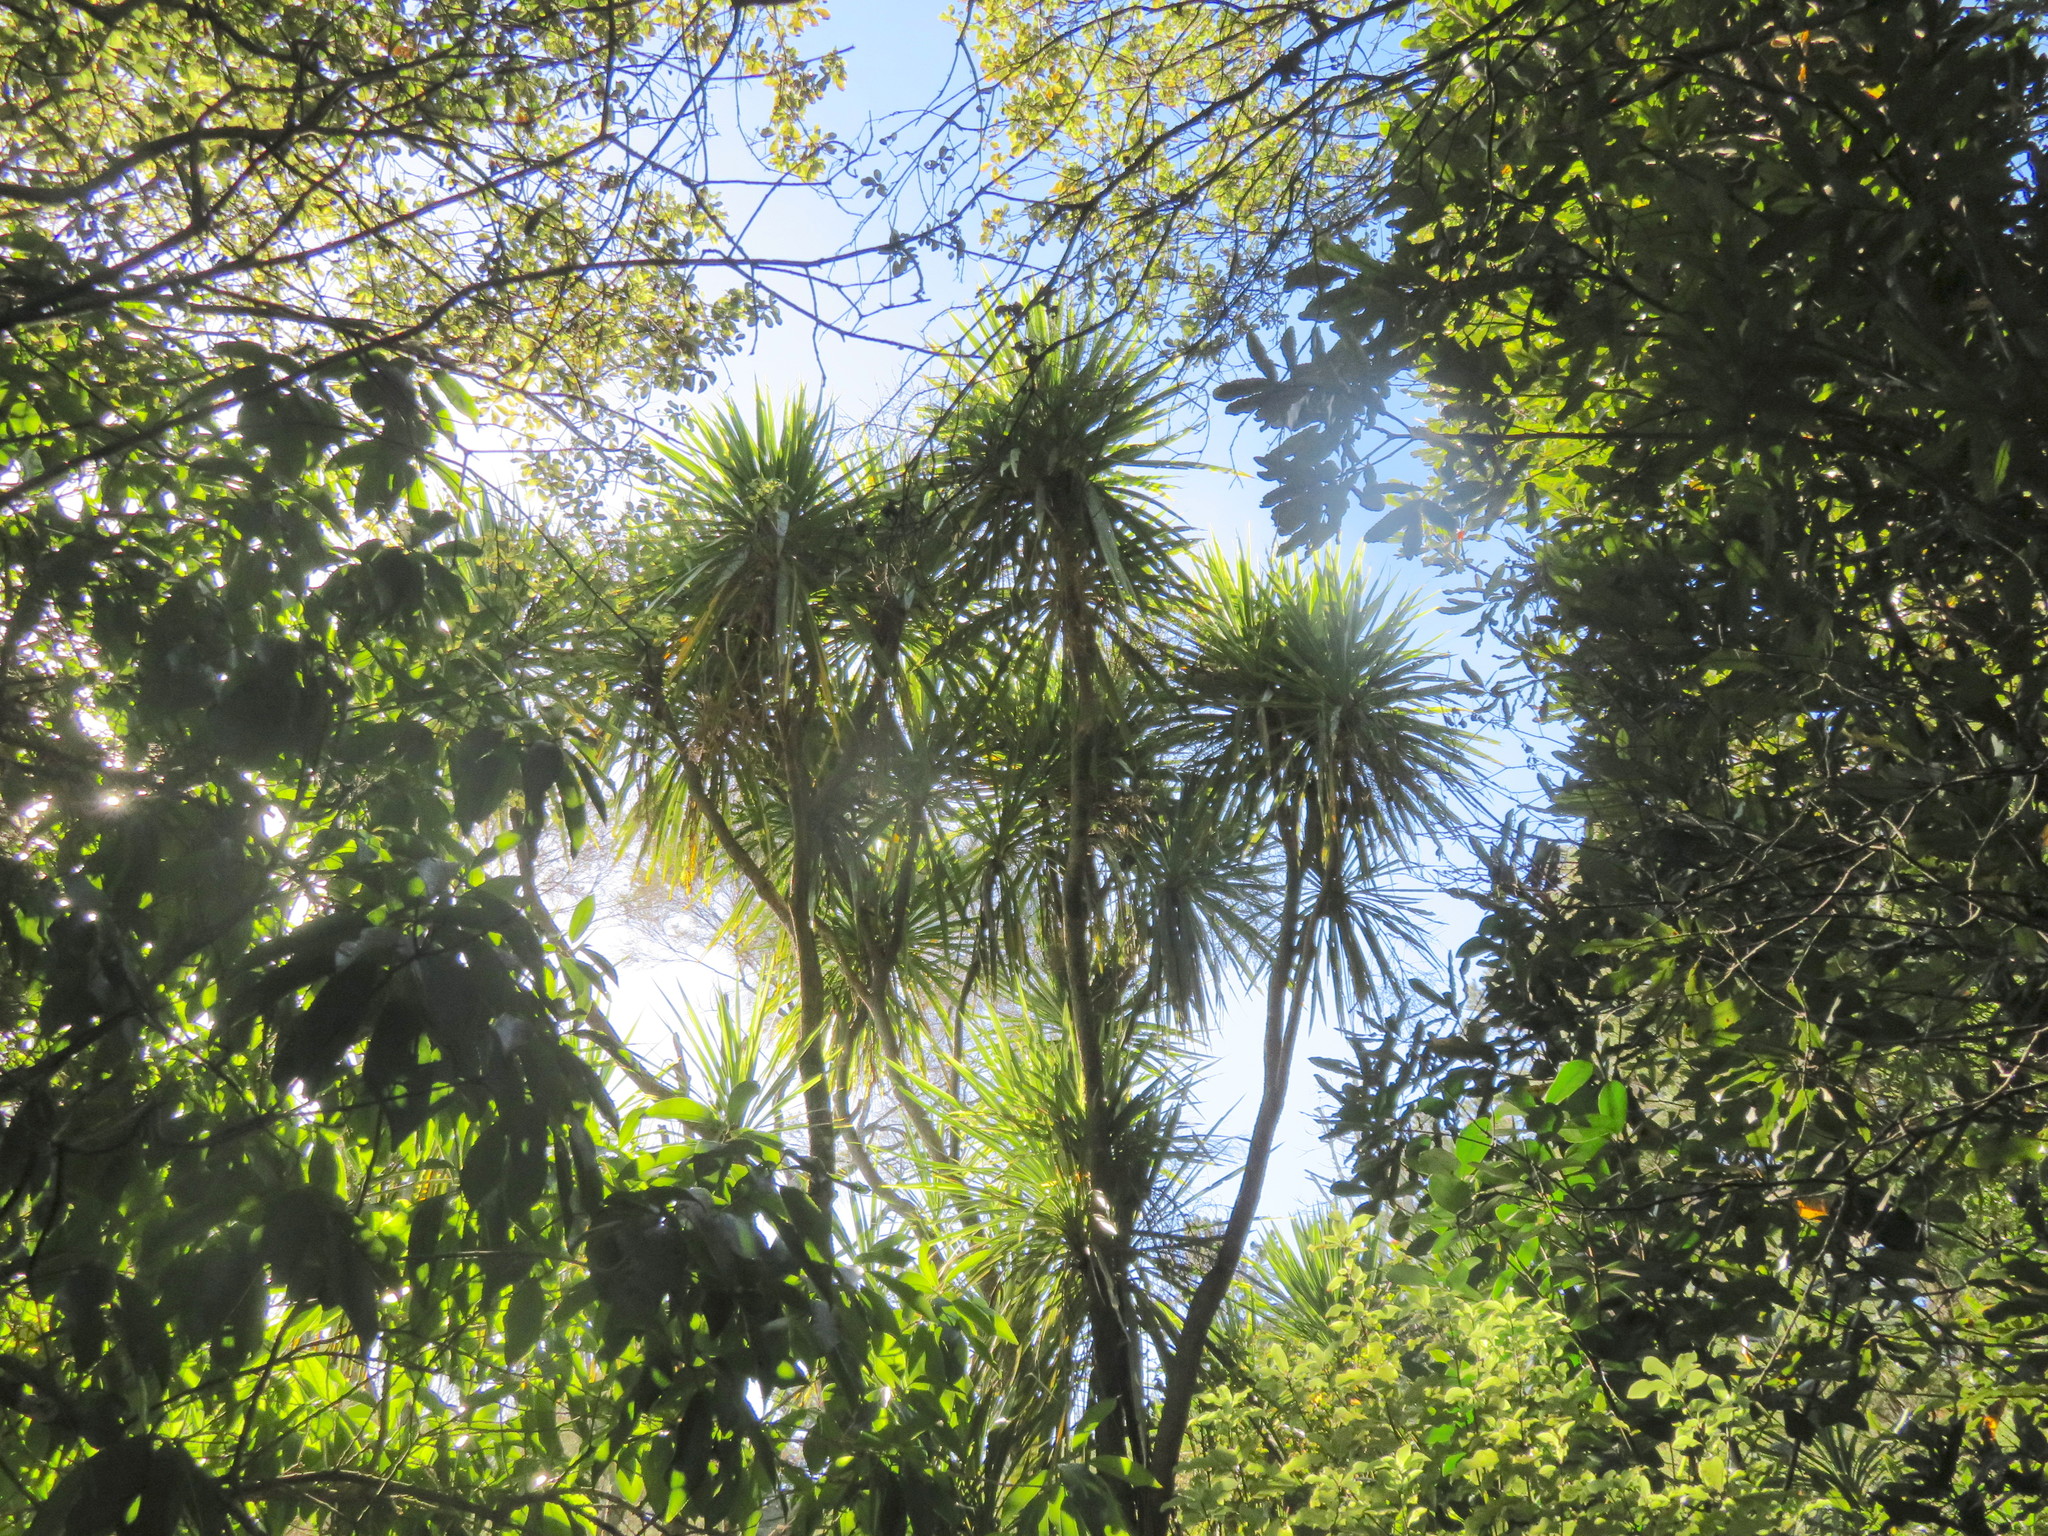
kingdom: Plantae
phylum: Tracheophyta
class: Liliopsida
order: Asparagales
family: Asparagaceae
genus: Cordyline
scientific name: Cordyline australis
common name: Cabbage-palm
